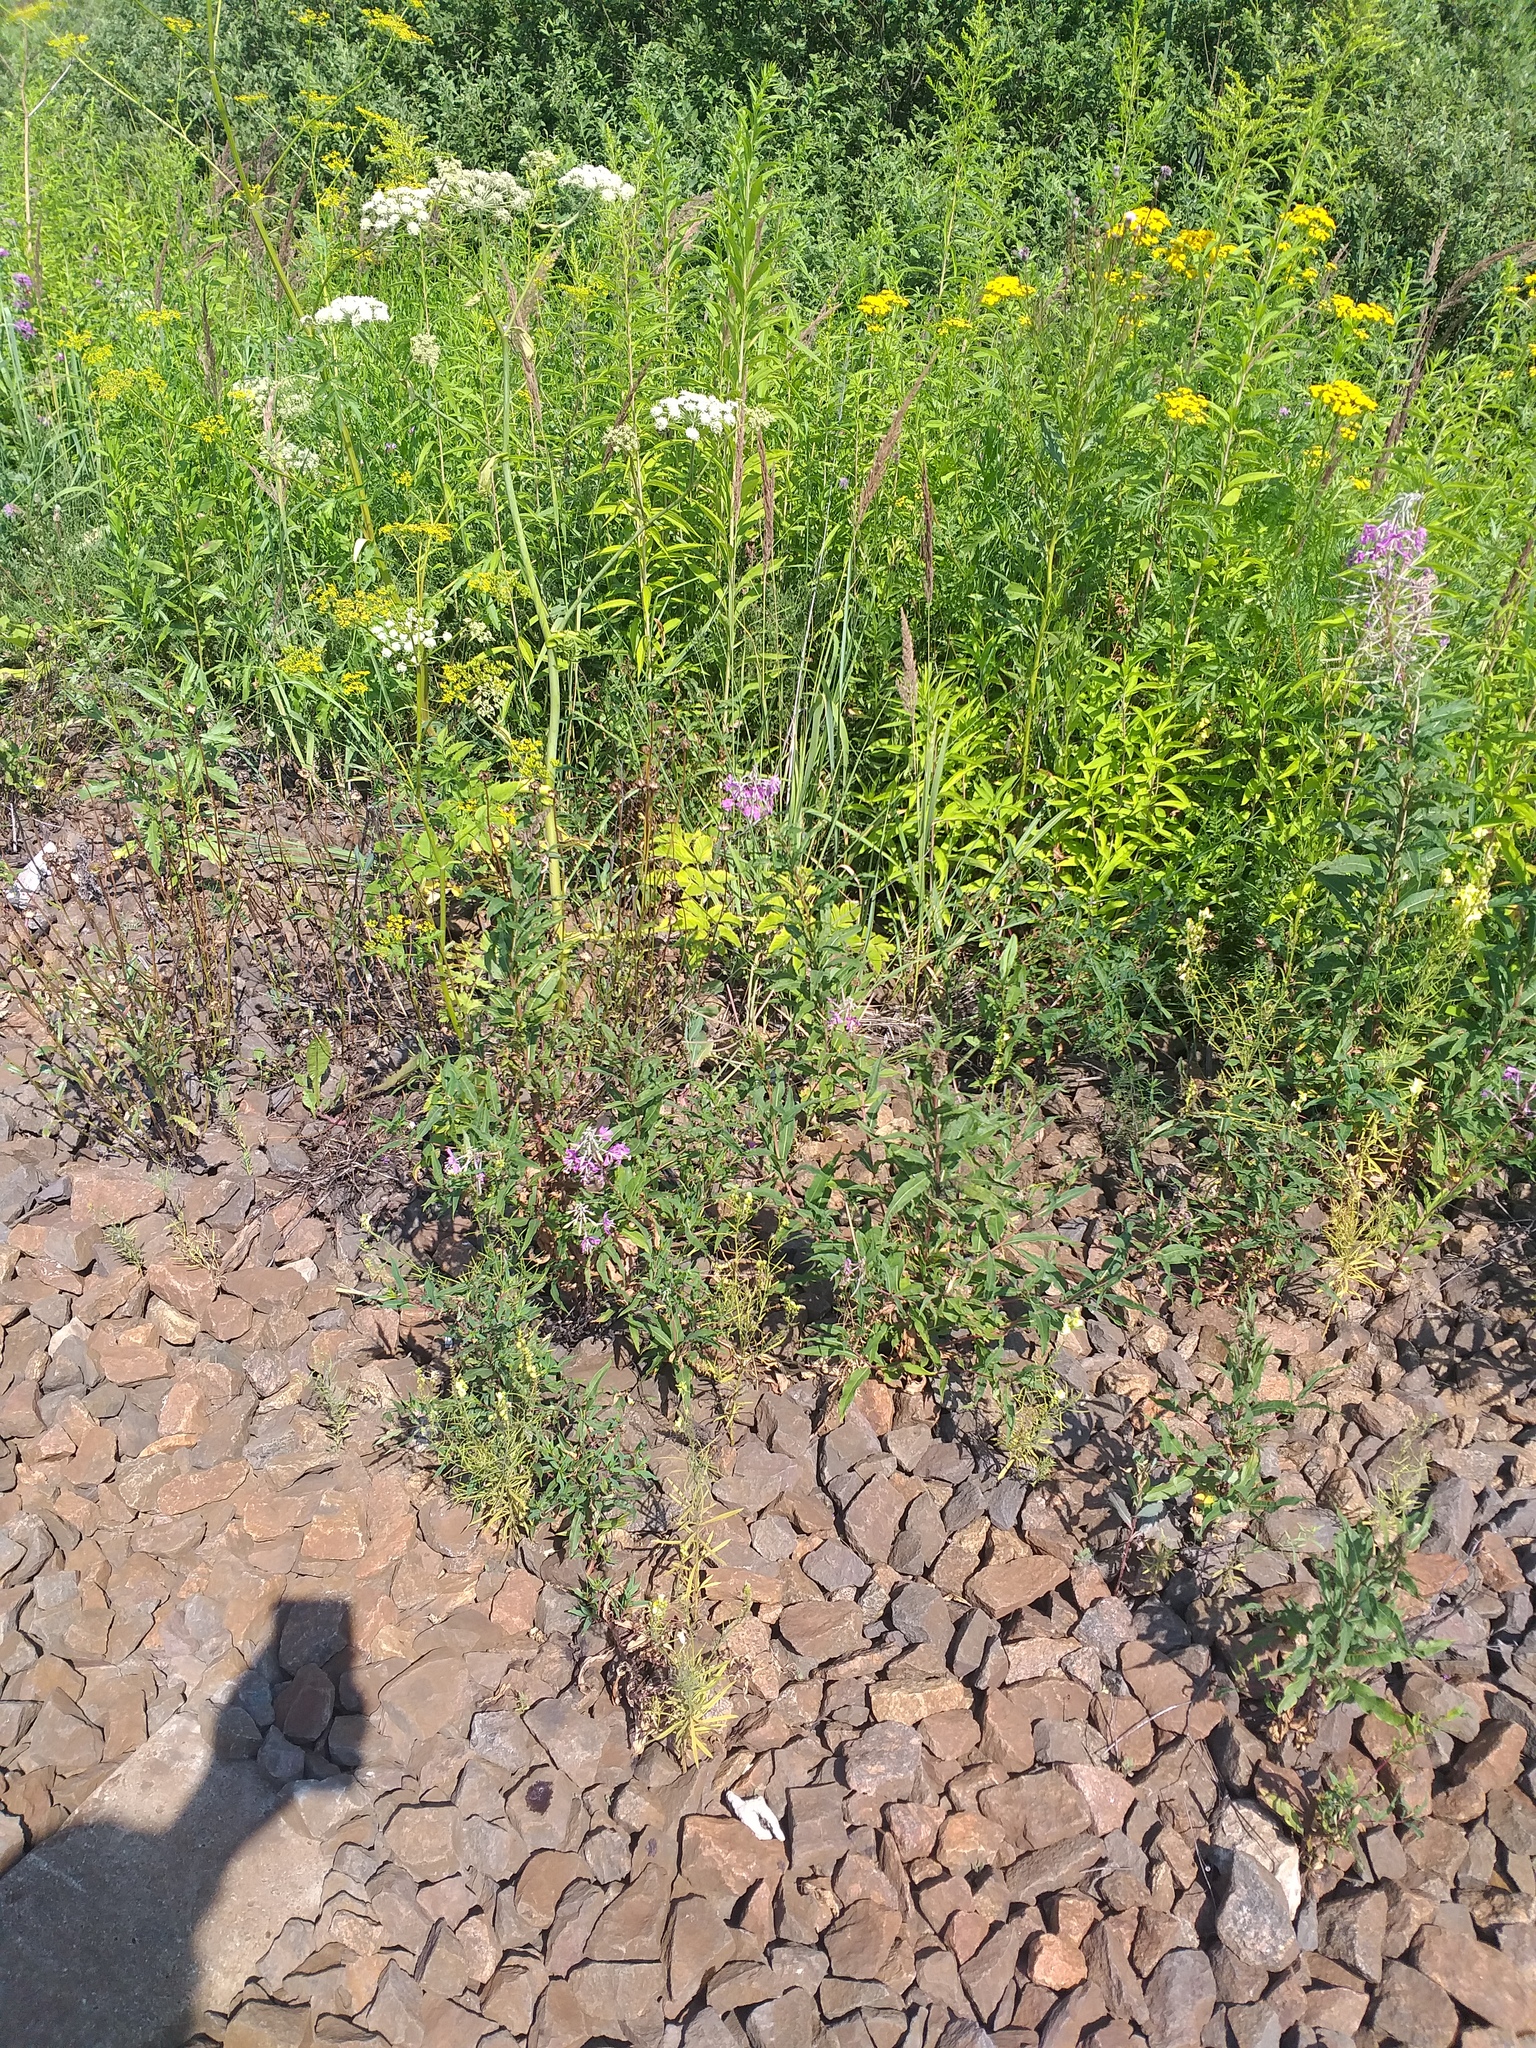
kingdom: Plantae
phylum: Tracheophyta
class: Magnoliopsida
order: Myrtales
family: Onagraceae
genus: Chamaenerion
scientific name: Chamaenerion angustifolium
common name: Fireweed
